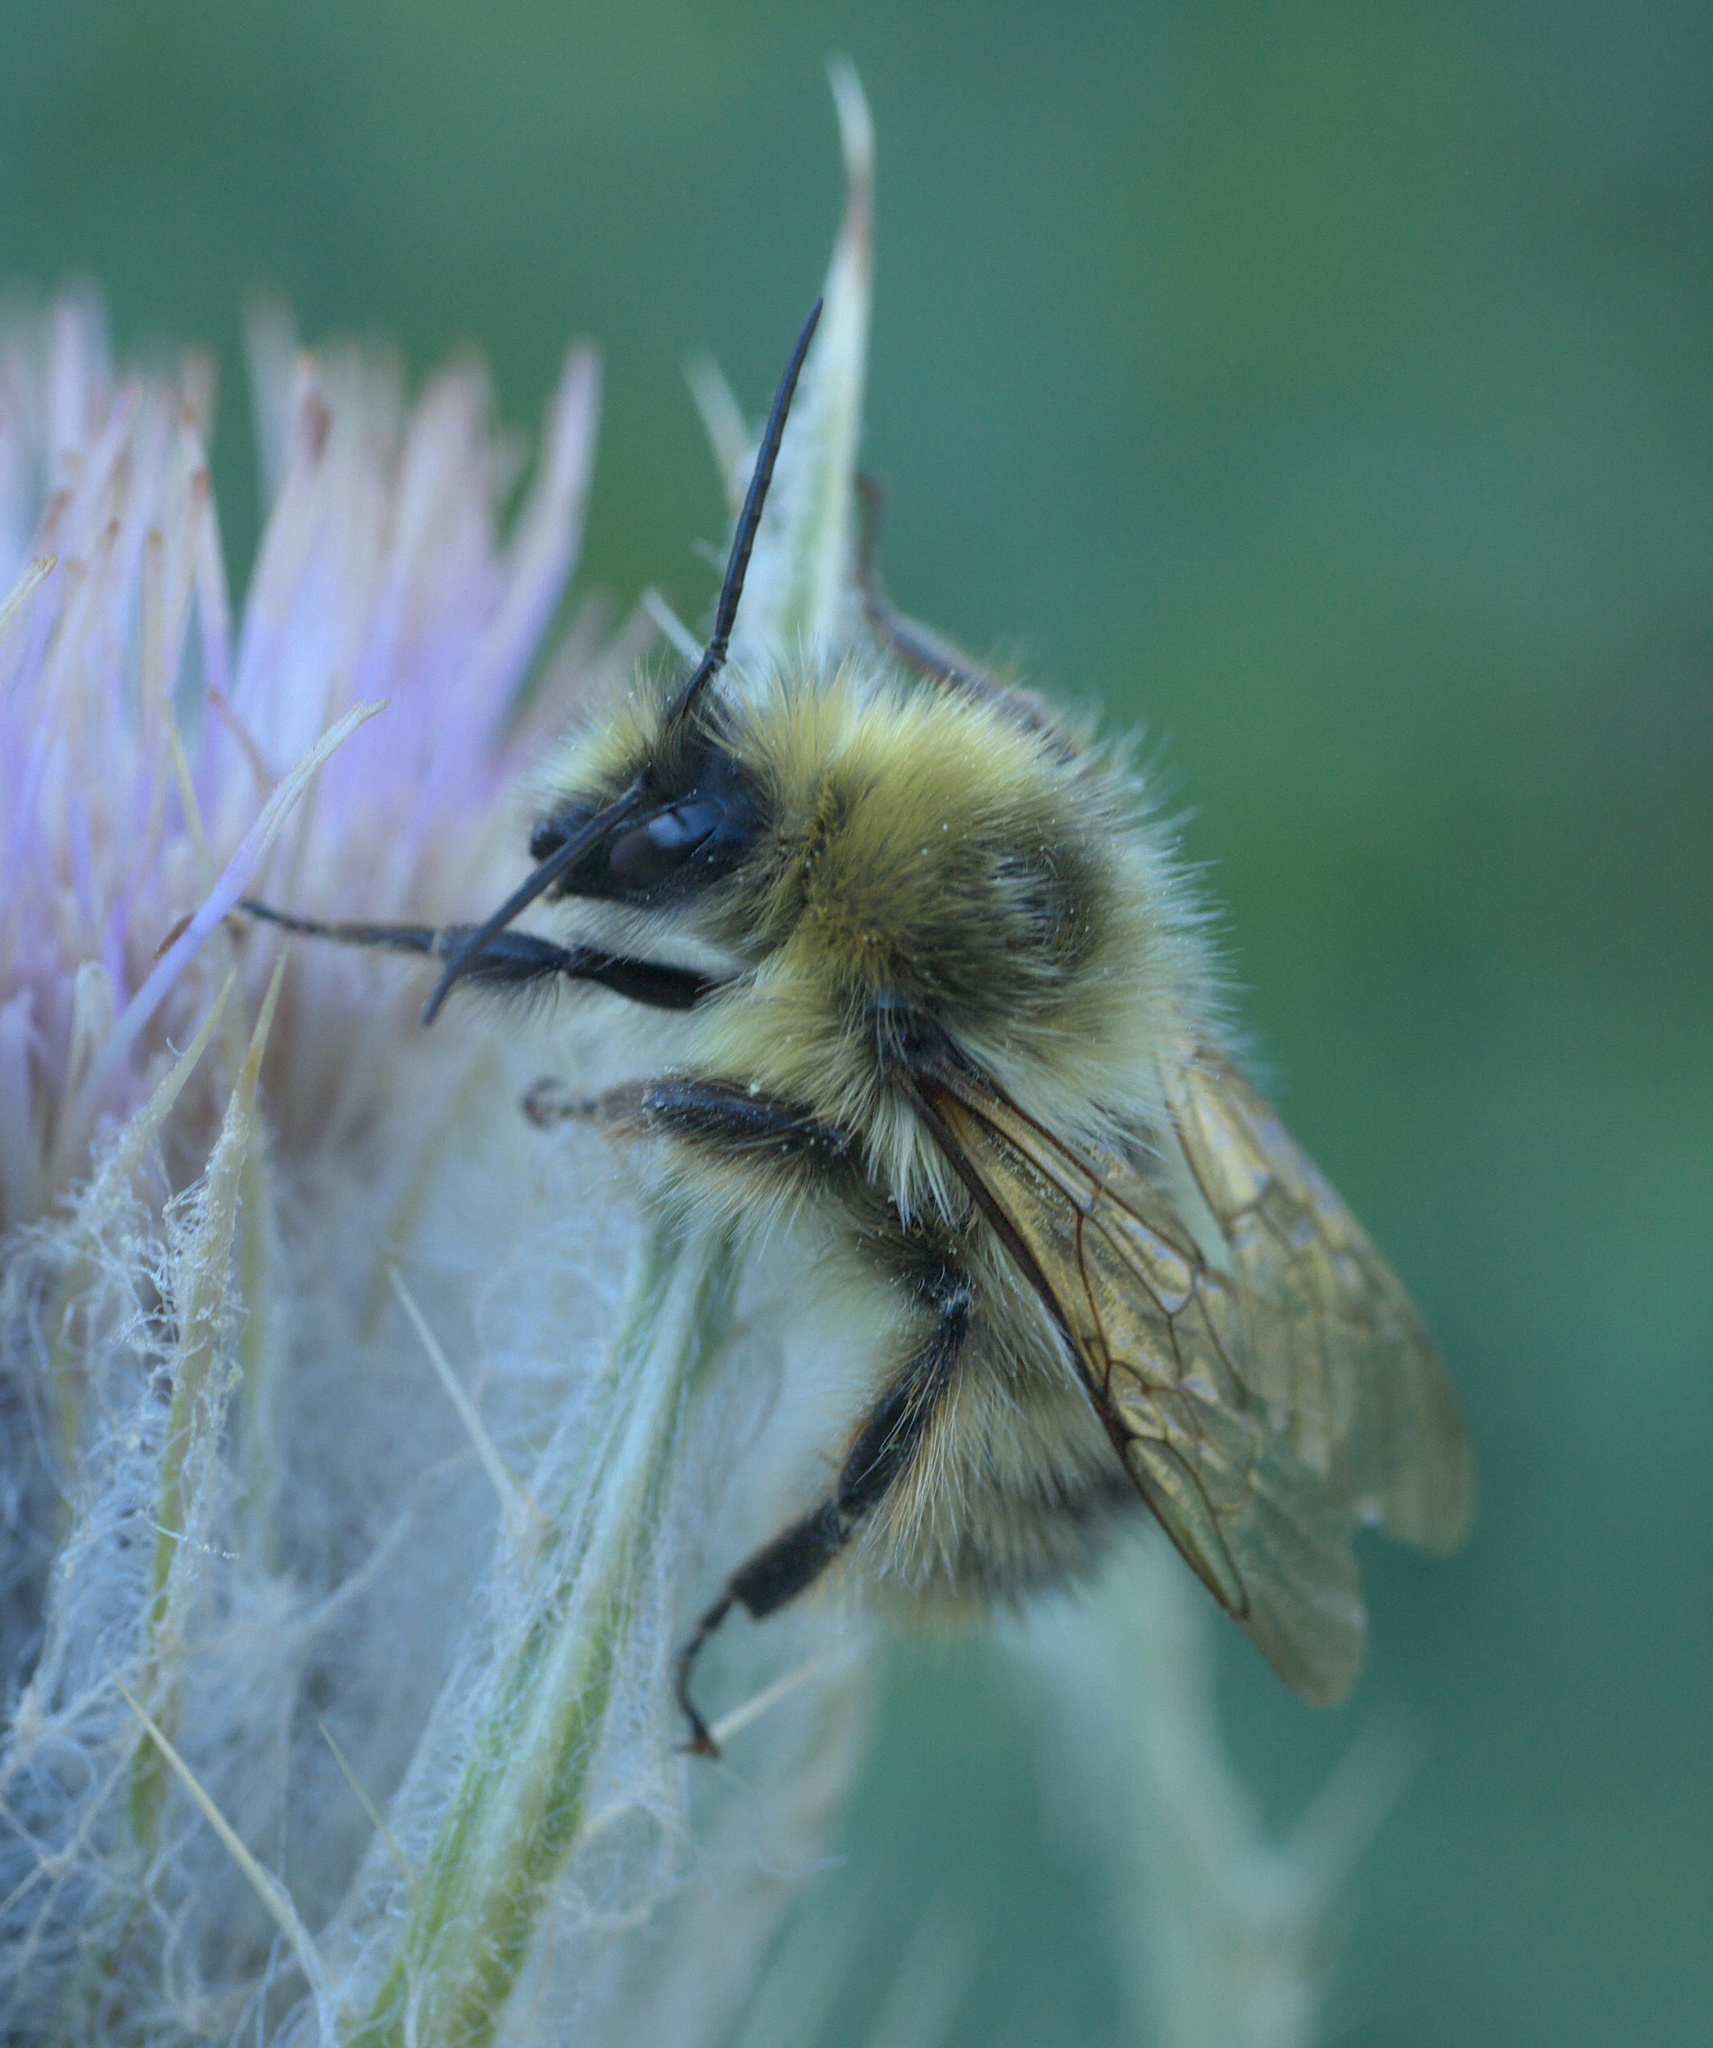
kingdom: Animalia
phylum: Arthropoda
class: Insecta
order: Hymenoptera
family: Apidae
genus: Bombus
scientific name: Bombus kirbiellus
